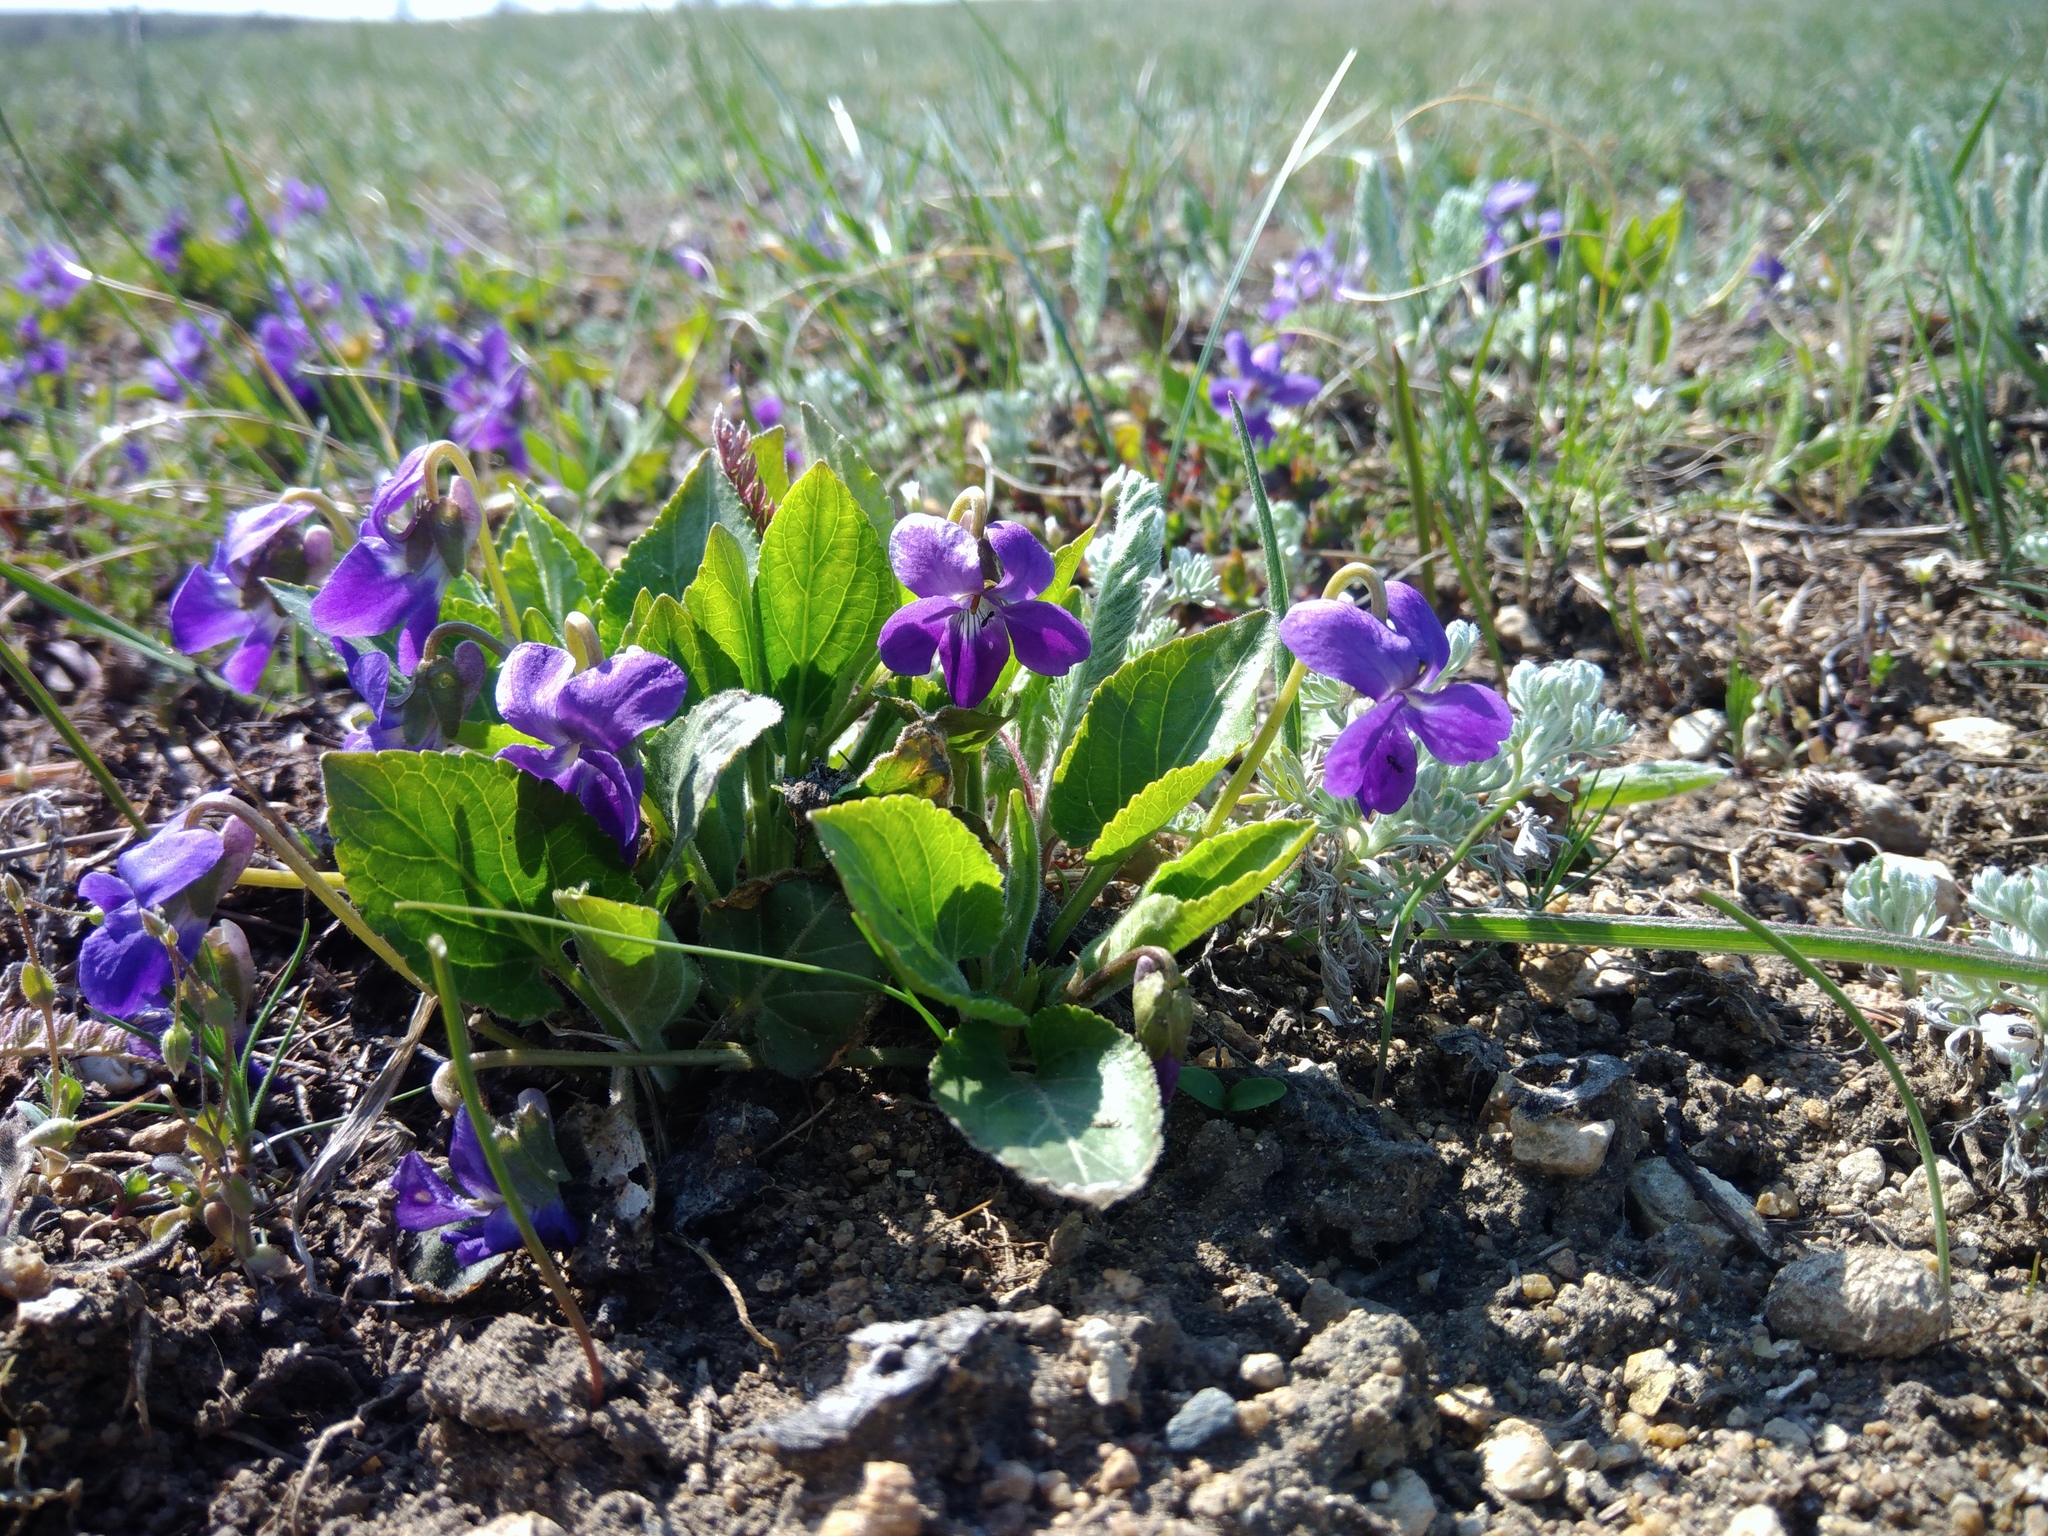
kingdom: Plantae
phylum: Tracheophyta
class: Magnoliopsida
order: Malpighiales
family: Violaceae
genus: Viola
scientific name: Viola ambigua
